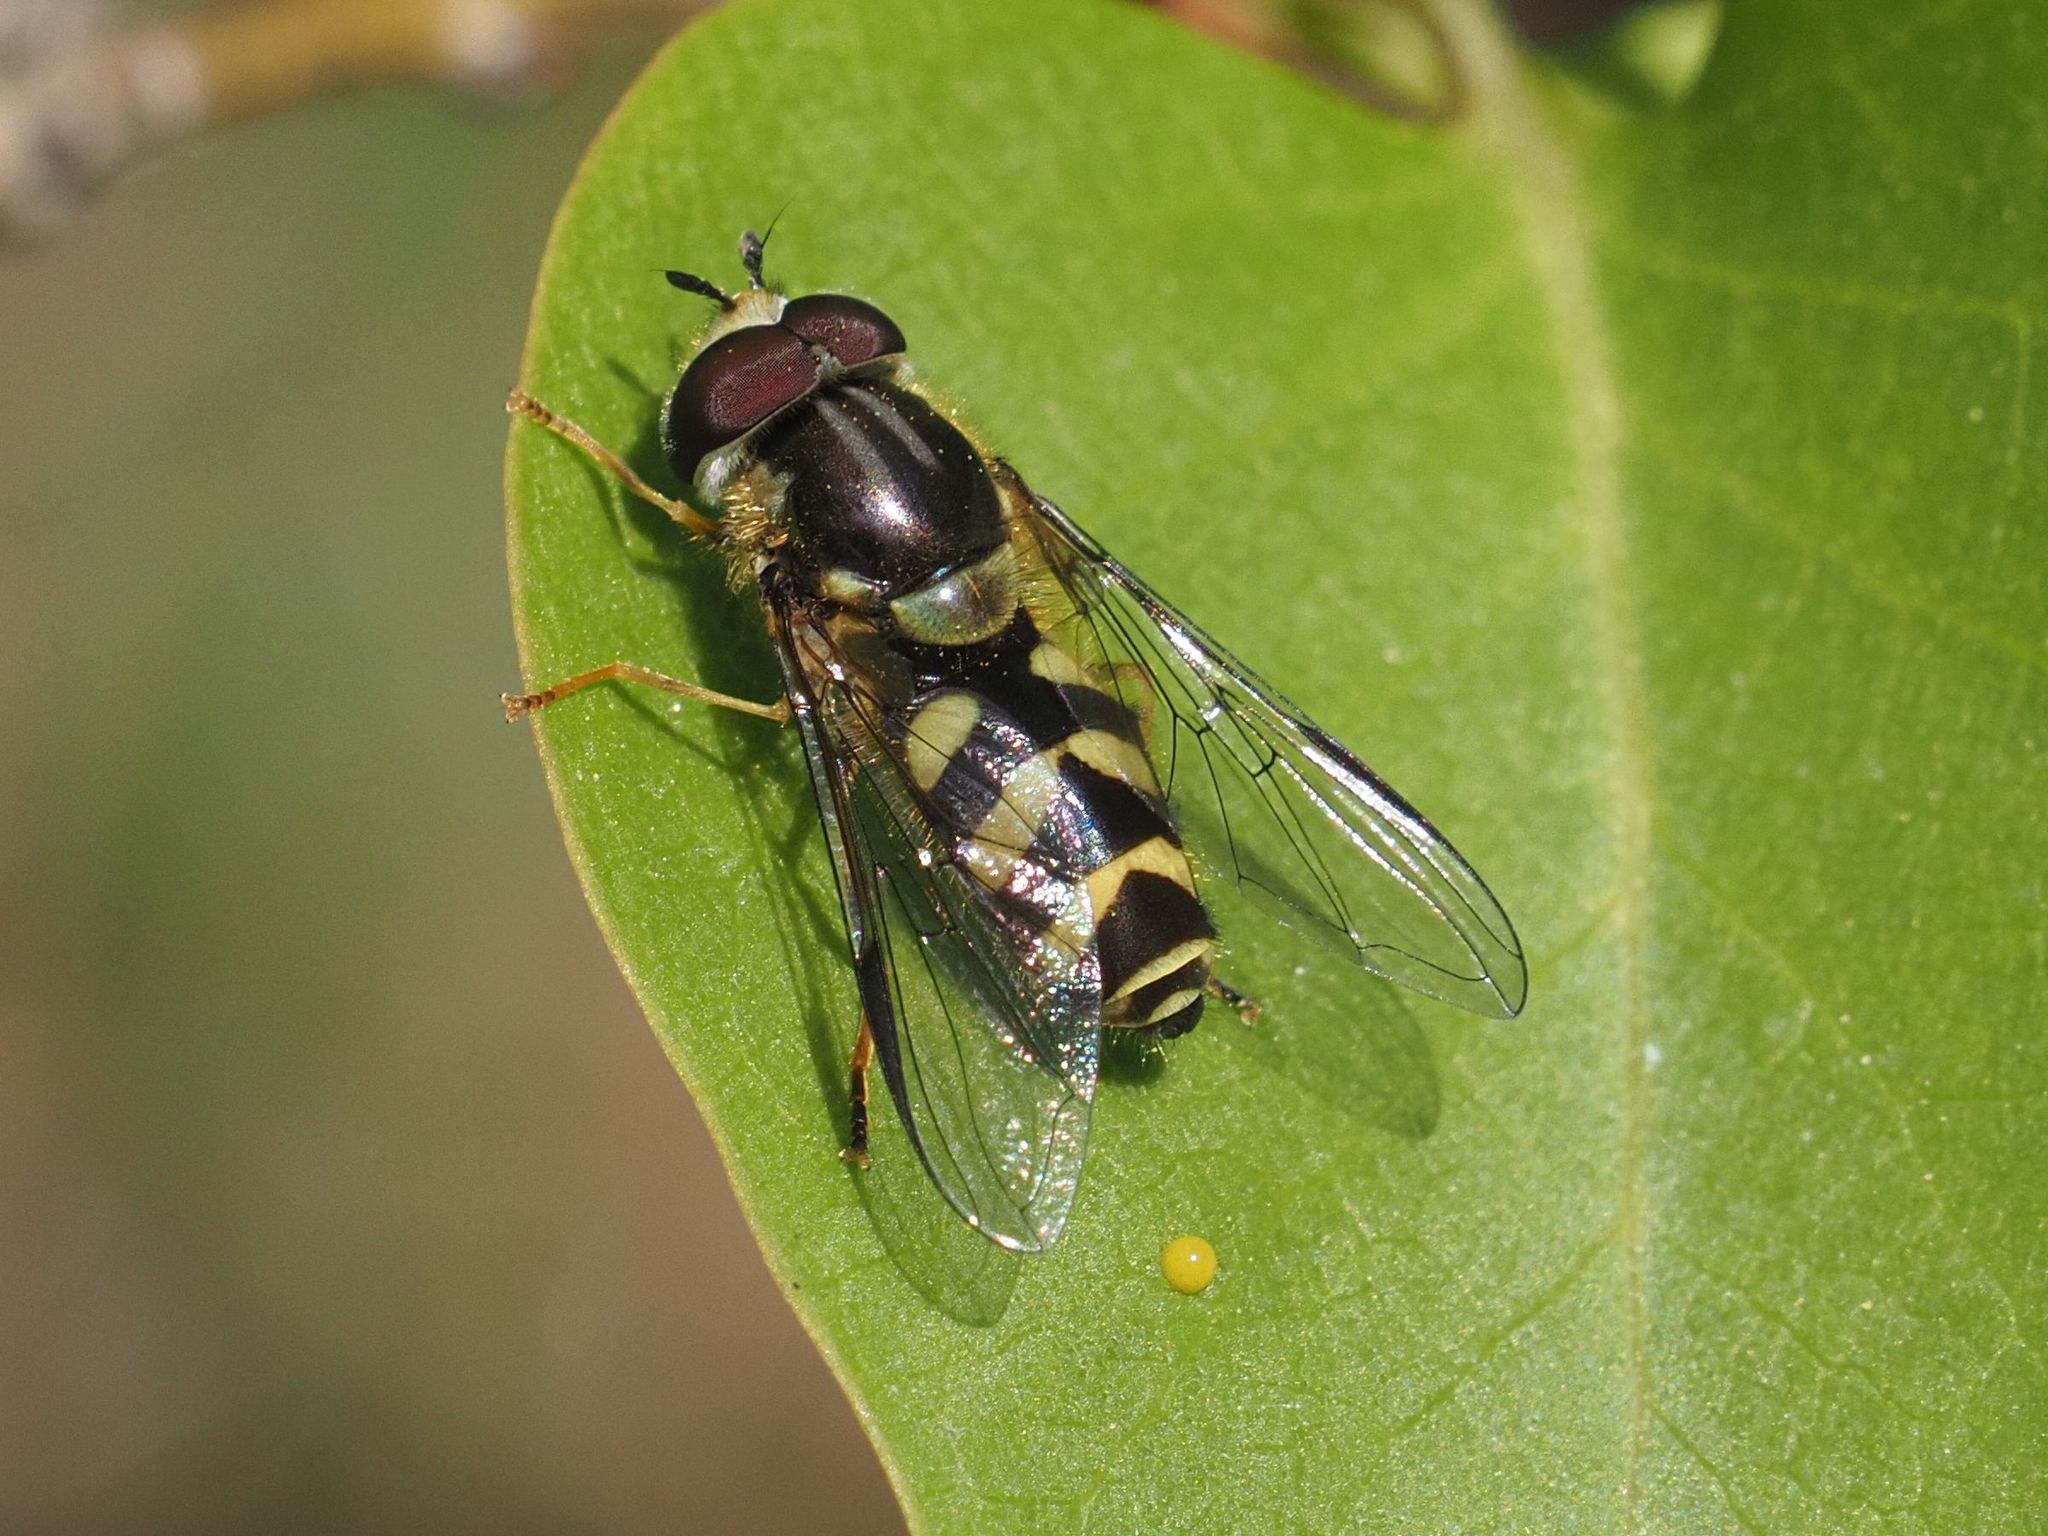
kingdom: Animalia
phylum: Arthropoda
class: Insecta
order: Diptera
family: Syrphidae
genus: Dasysyrphus
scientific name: Dasysyrphus albostriatus
